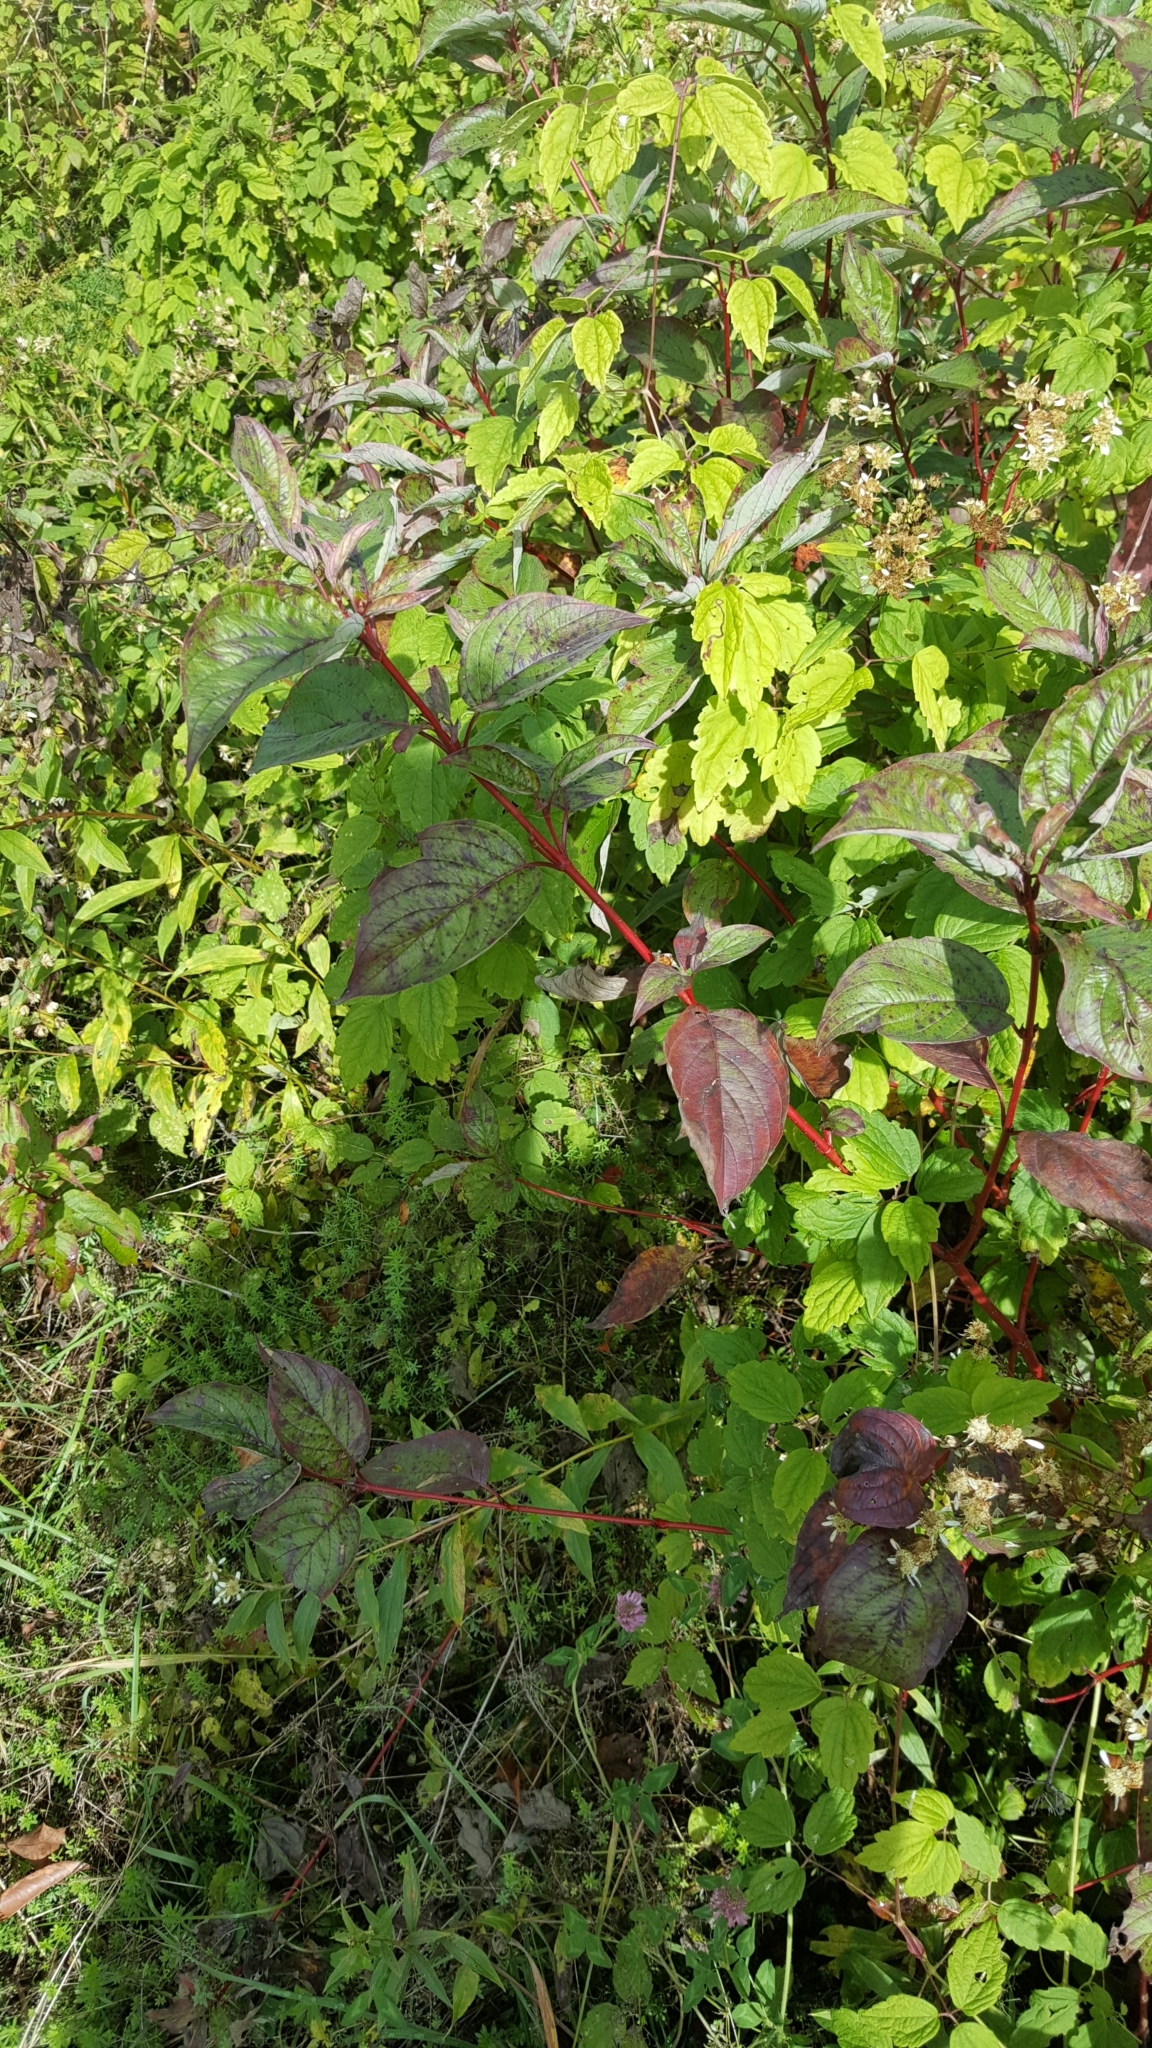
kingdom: Plantae
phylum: Tracheophyta
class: Magnoliopsida
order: Cornales
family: Cornaceae
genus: Cornus
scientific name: Cornus sericea
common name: Red-osier dogwood
